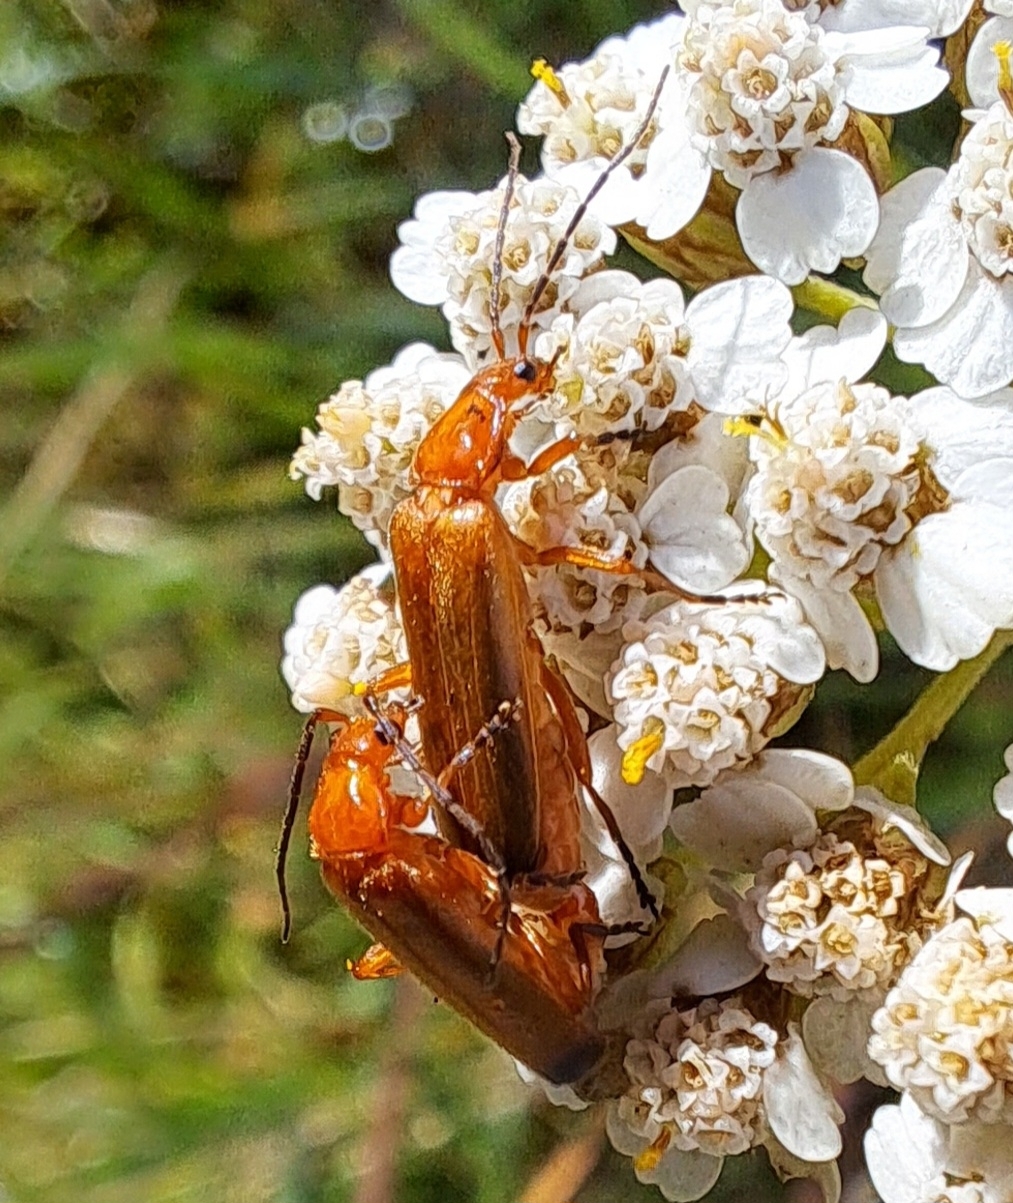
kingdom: Animalia
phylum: Arthropoda
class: Insecta
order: Coleoptera
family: Cantharidae
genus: Rhagonycha
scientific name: Rhagonycha fulva
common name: Common red soldier beetle
